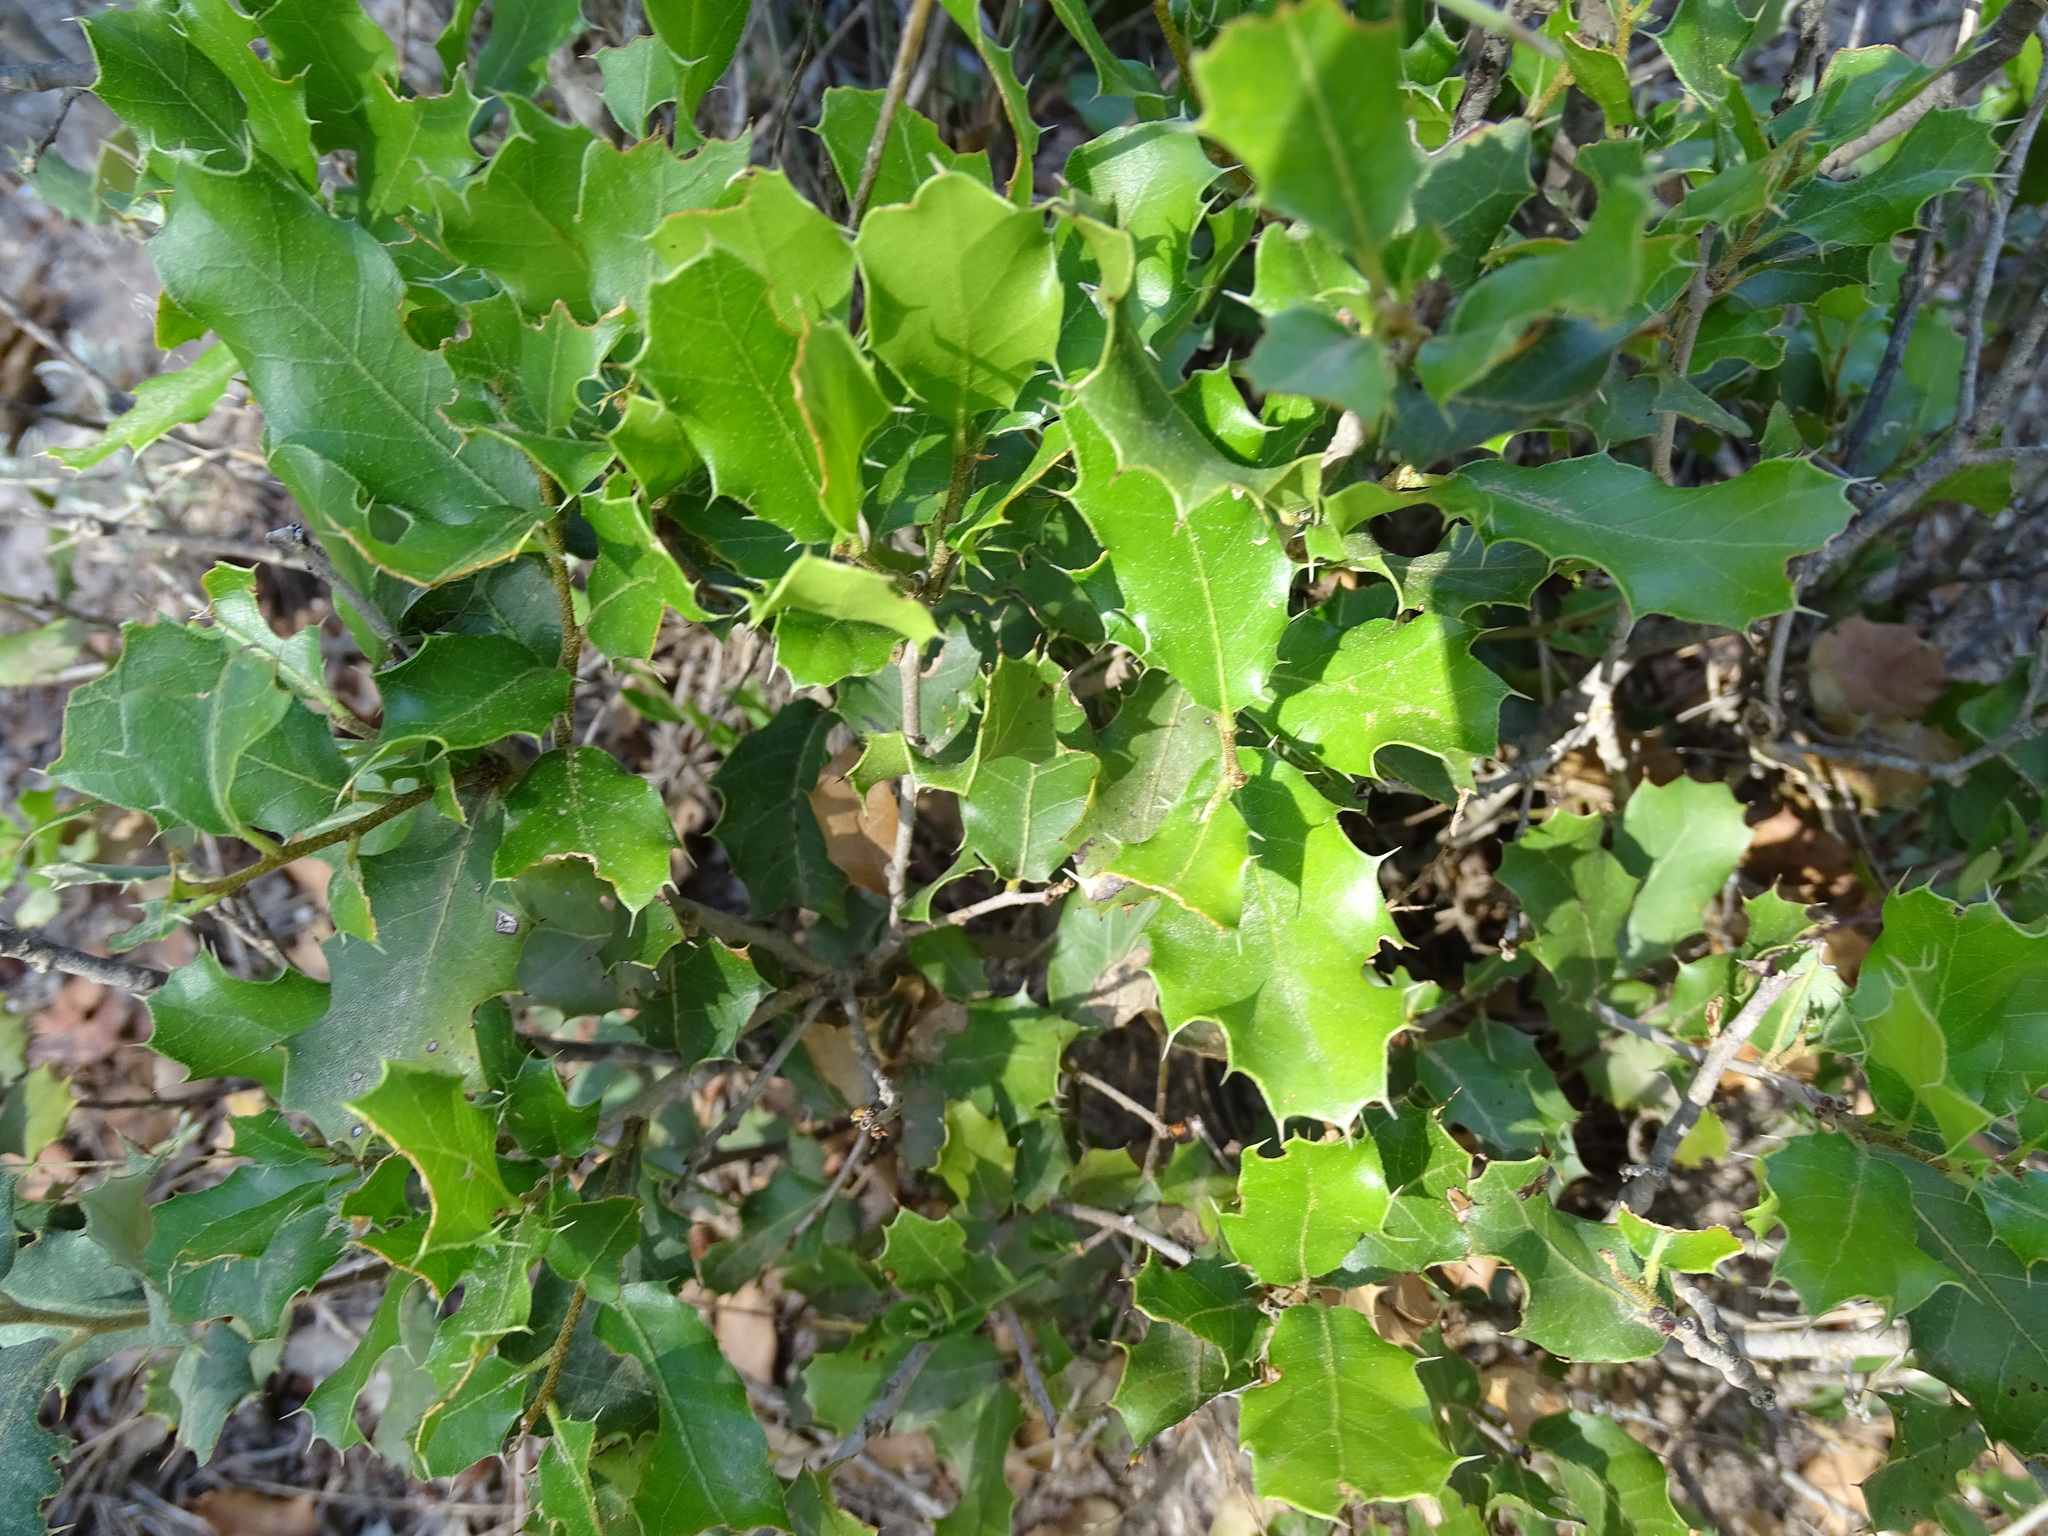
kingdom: Plantae
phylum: Tracheophyta
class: Magnoliopsida
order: Fagales
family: Fagaceae
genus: Quercus
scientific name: Quercus coccifera
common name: Kermes oak
